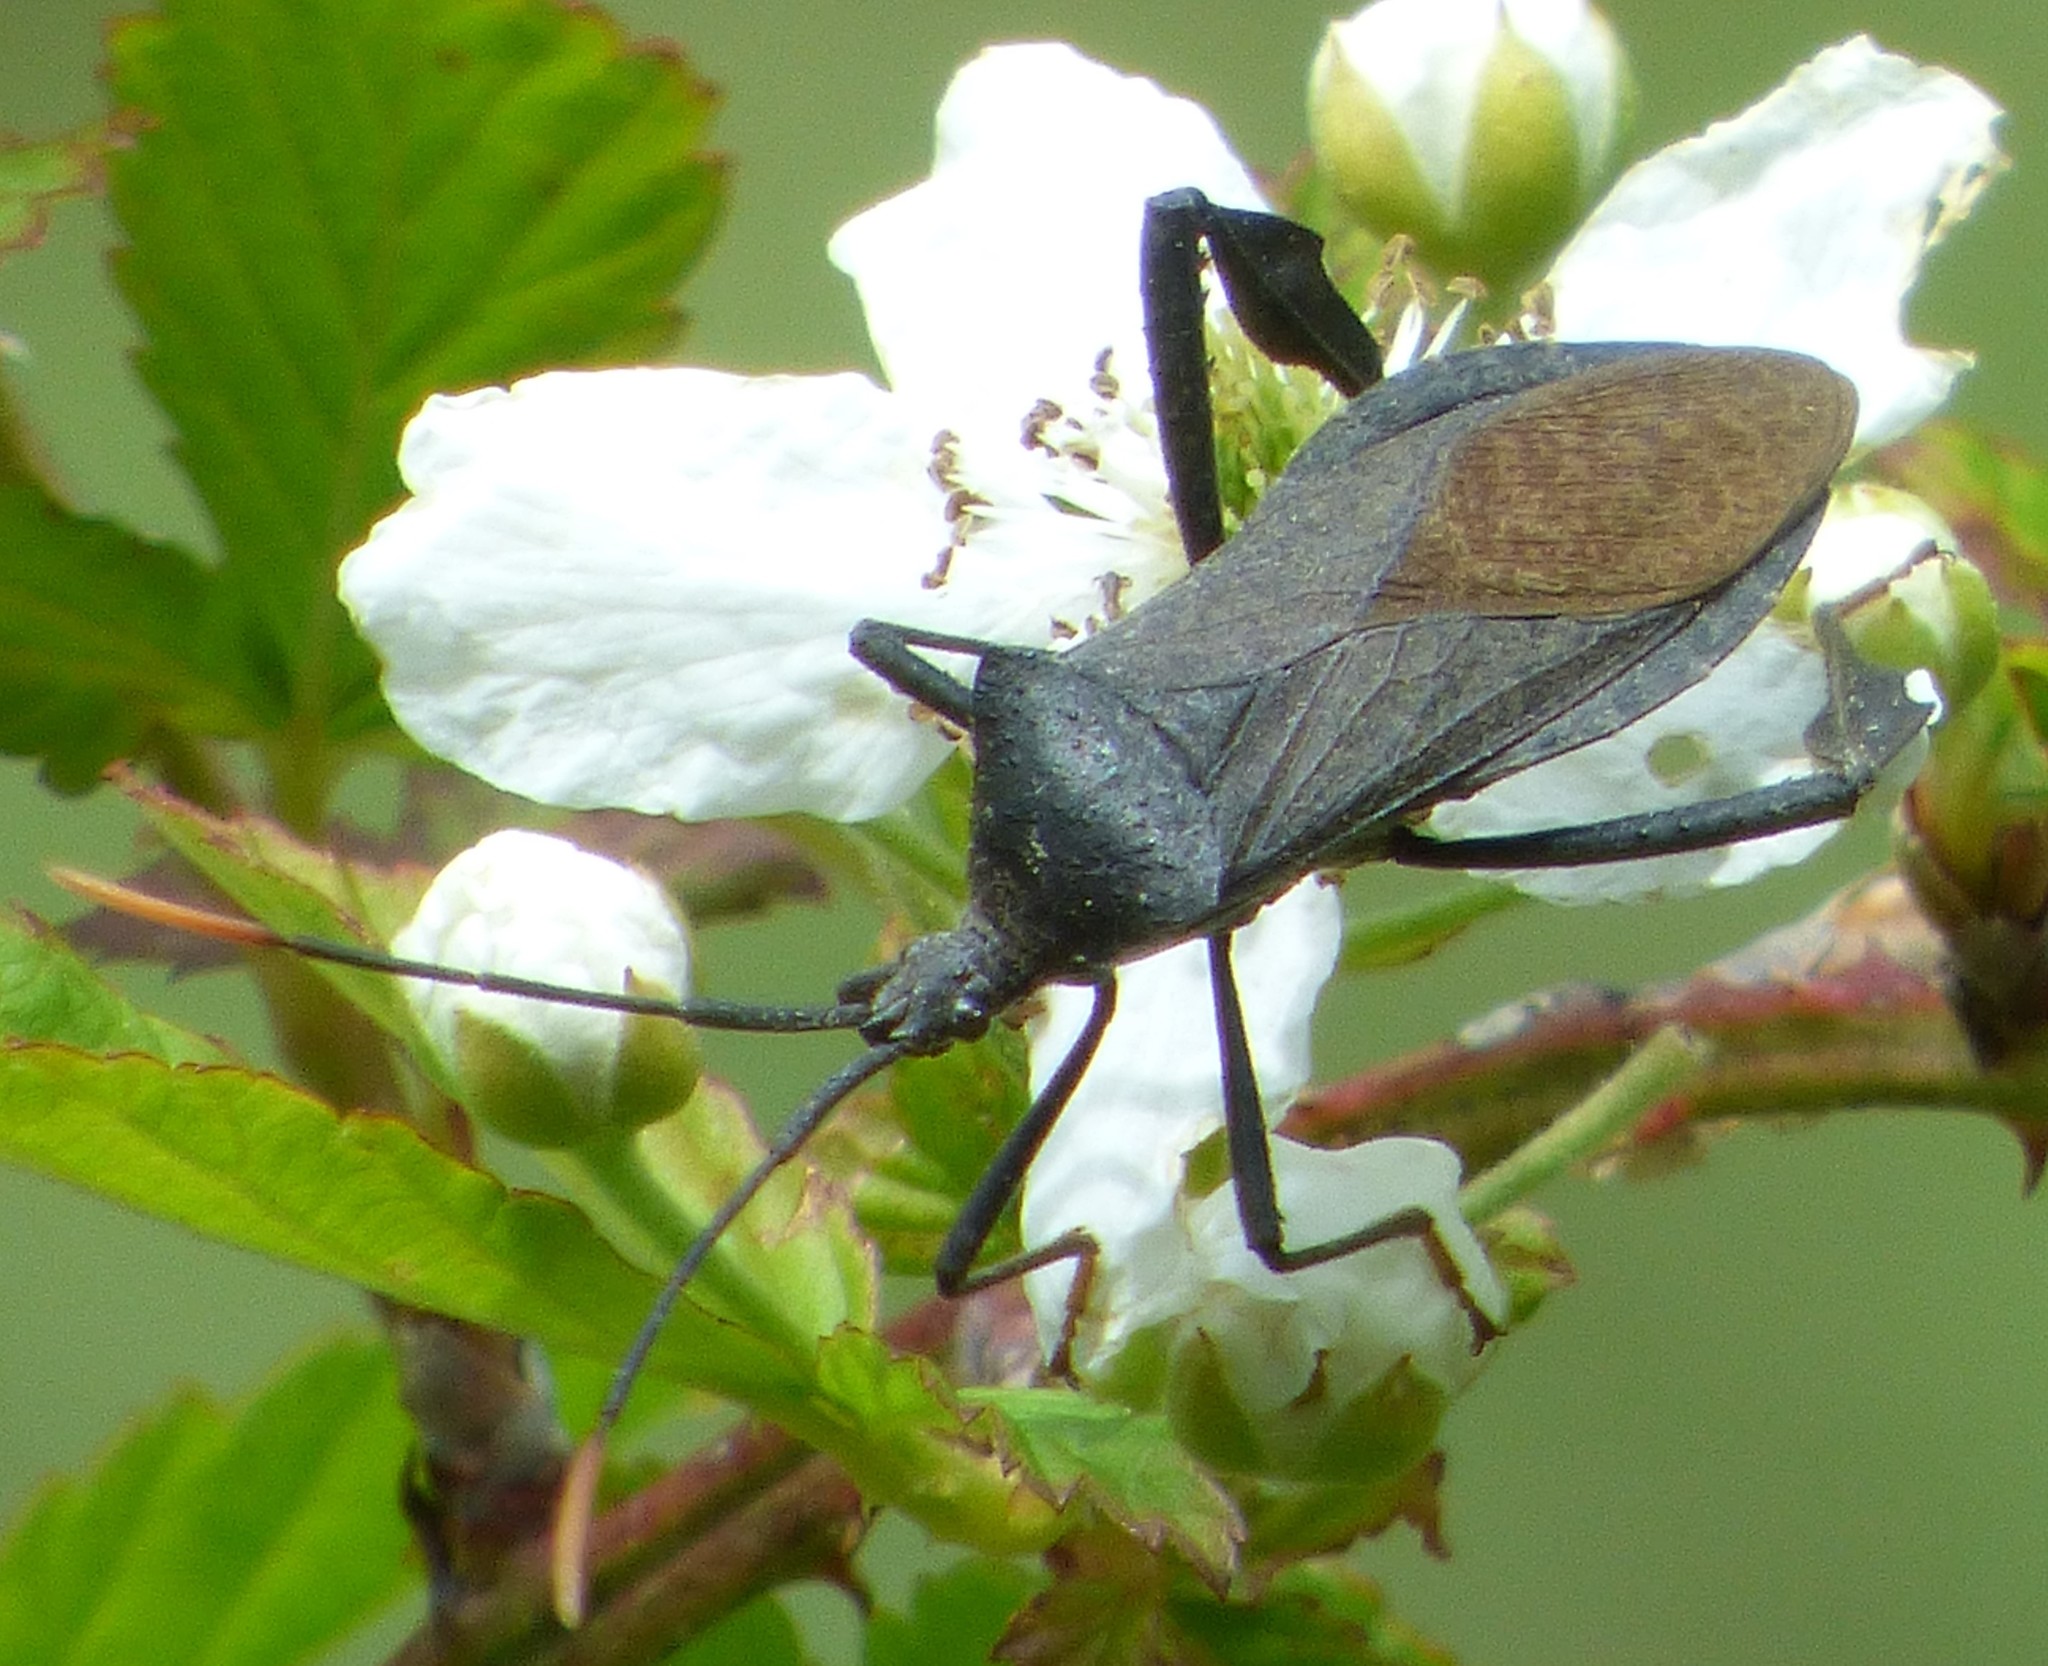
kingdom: Animalia
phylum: Arthropoda
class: Insecta
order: Hemiptera
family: Coreidae
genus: Acanthocephala
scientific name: Acanthocephala terminalis
